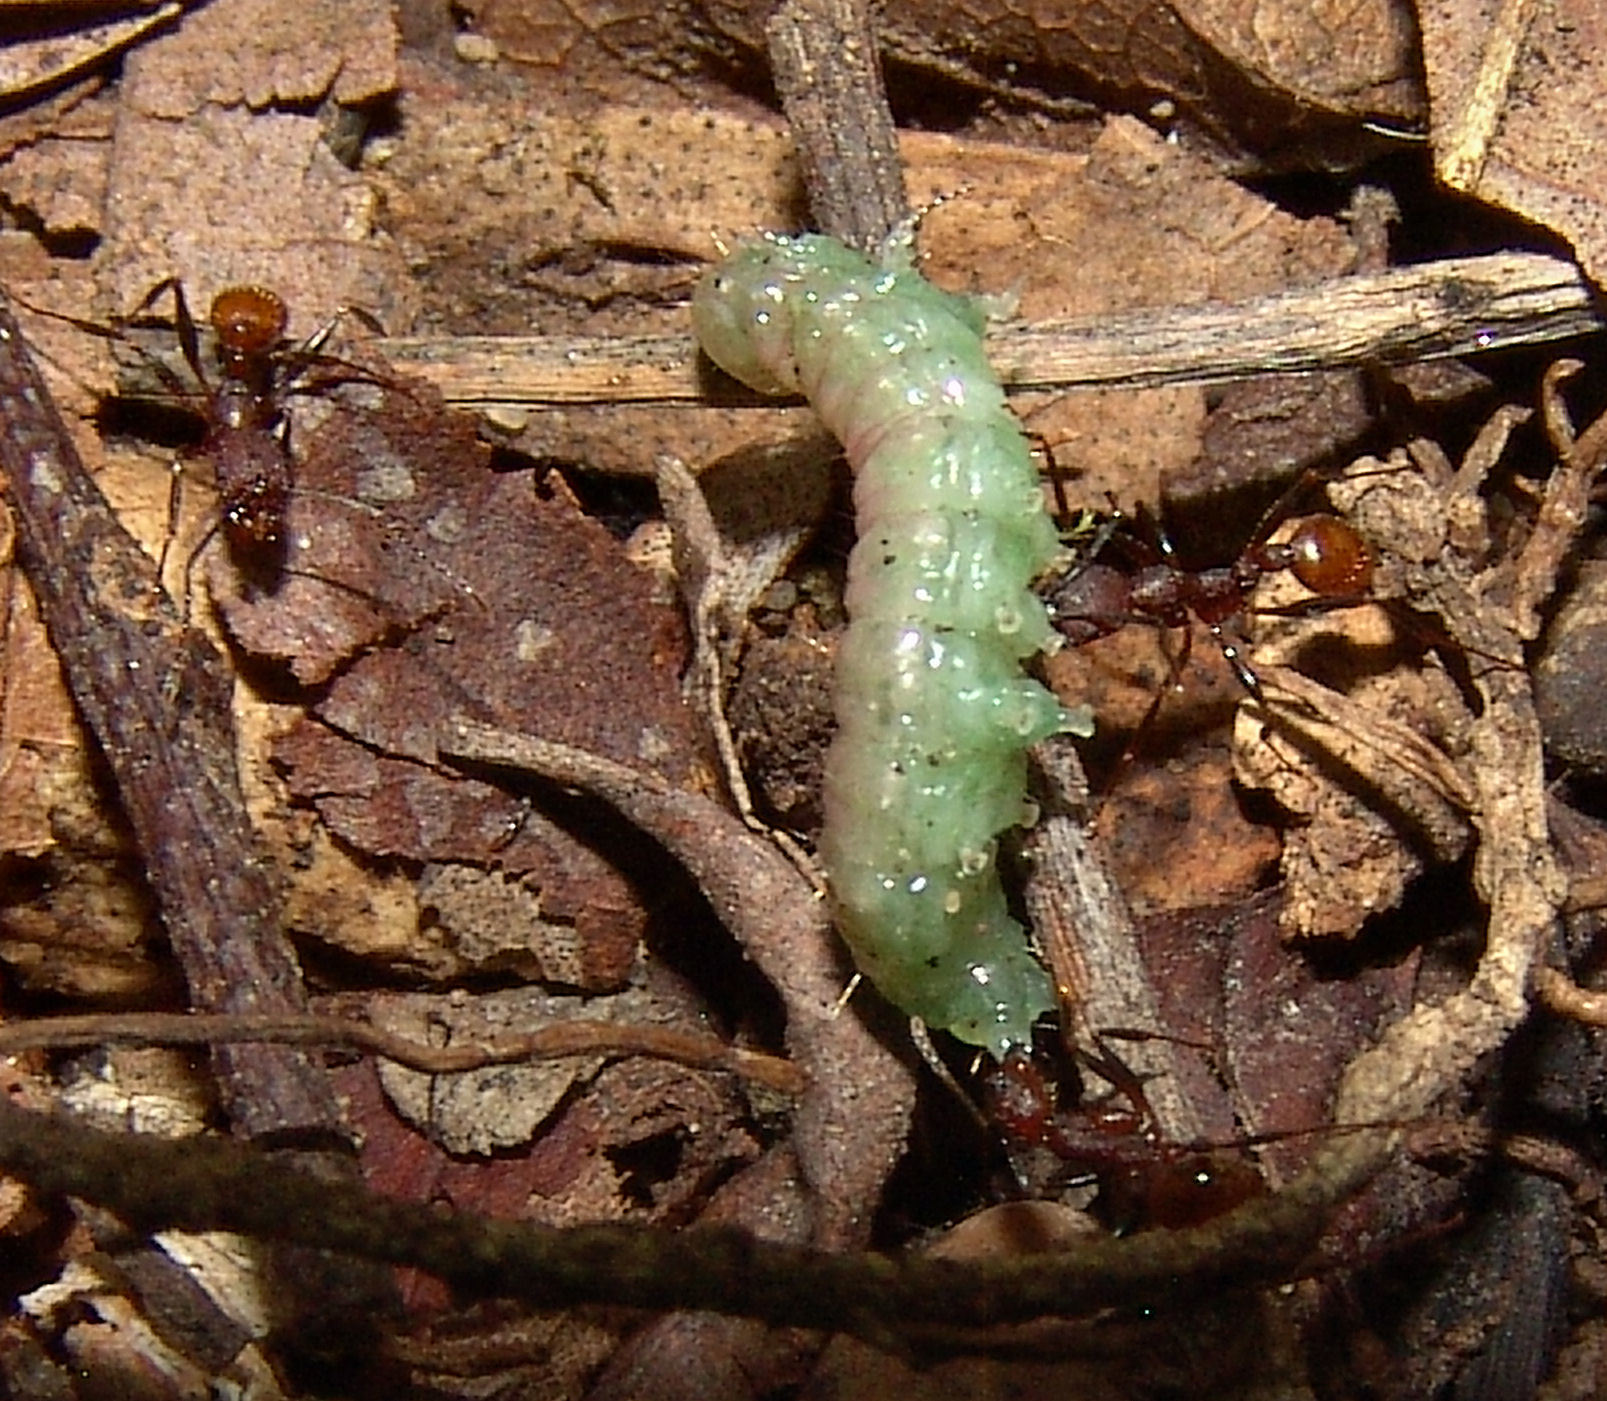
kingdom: Animalia
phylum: Arthropoda
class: Insecta
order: Hymenoptera
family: Formicidae
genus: Aphaenogaster
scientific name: Aphaenogaster lamellidens
